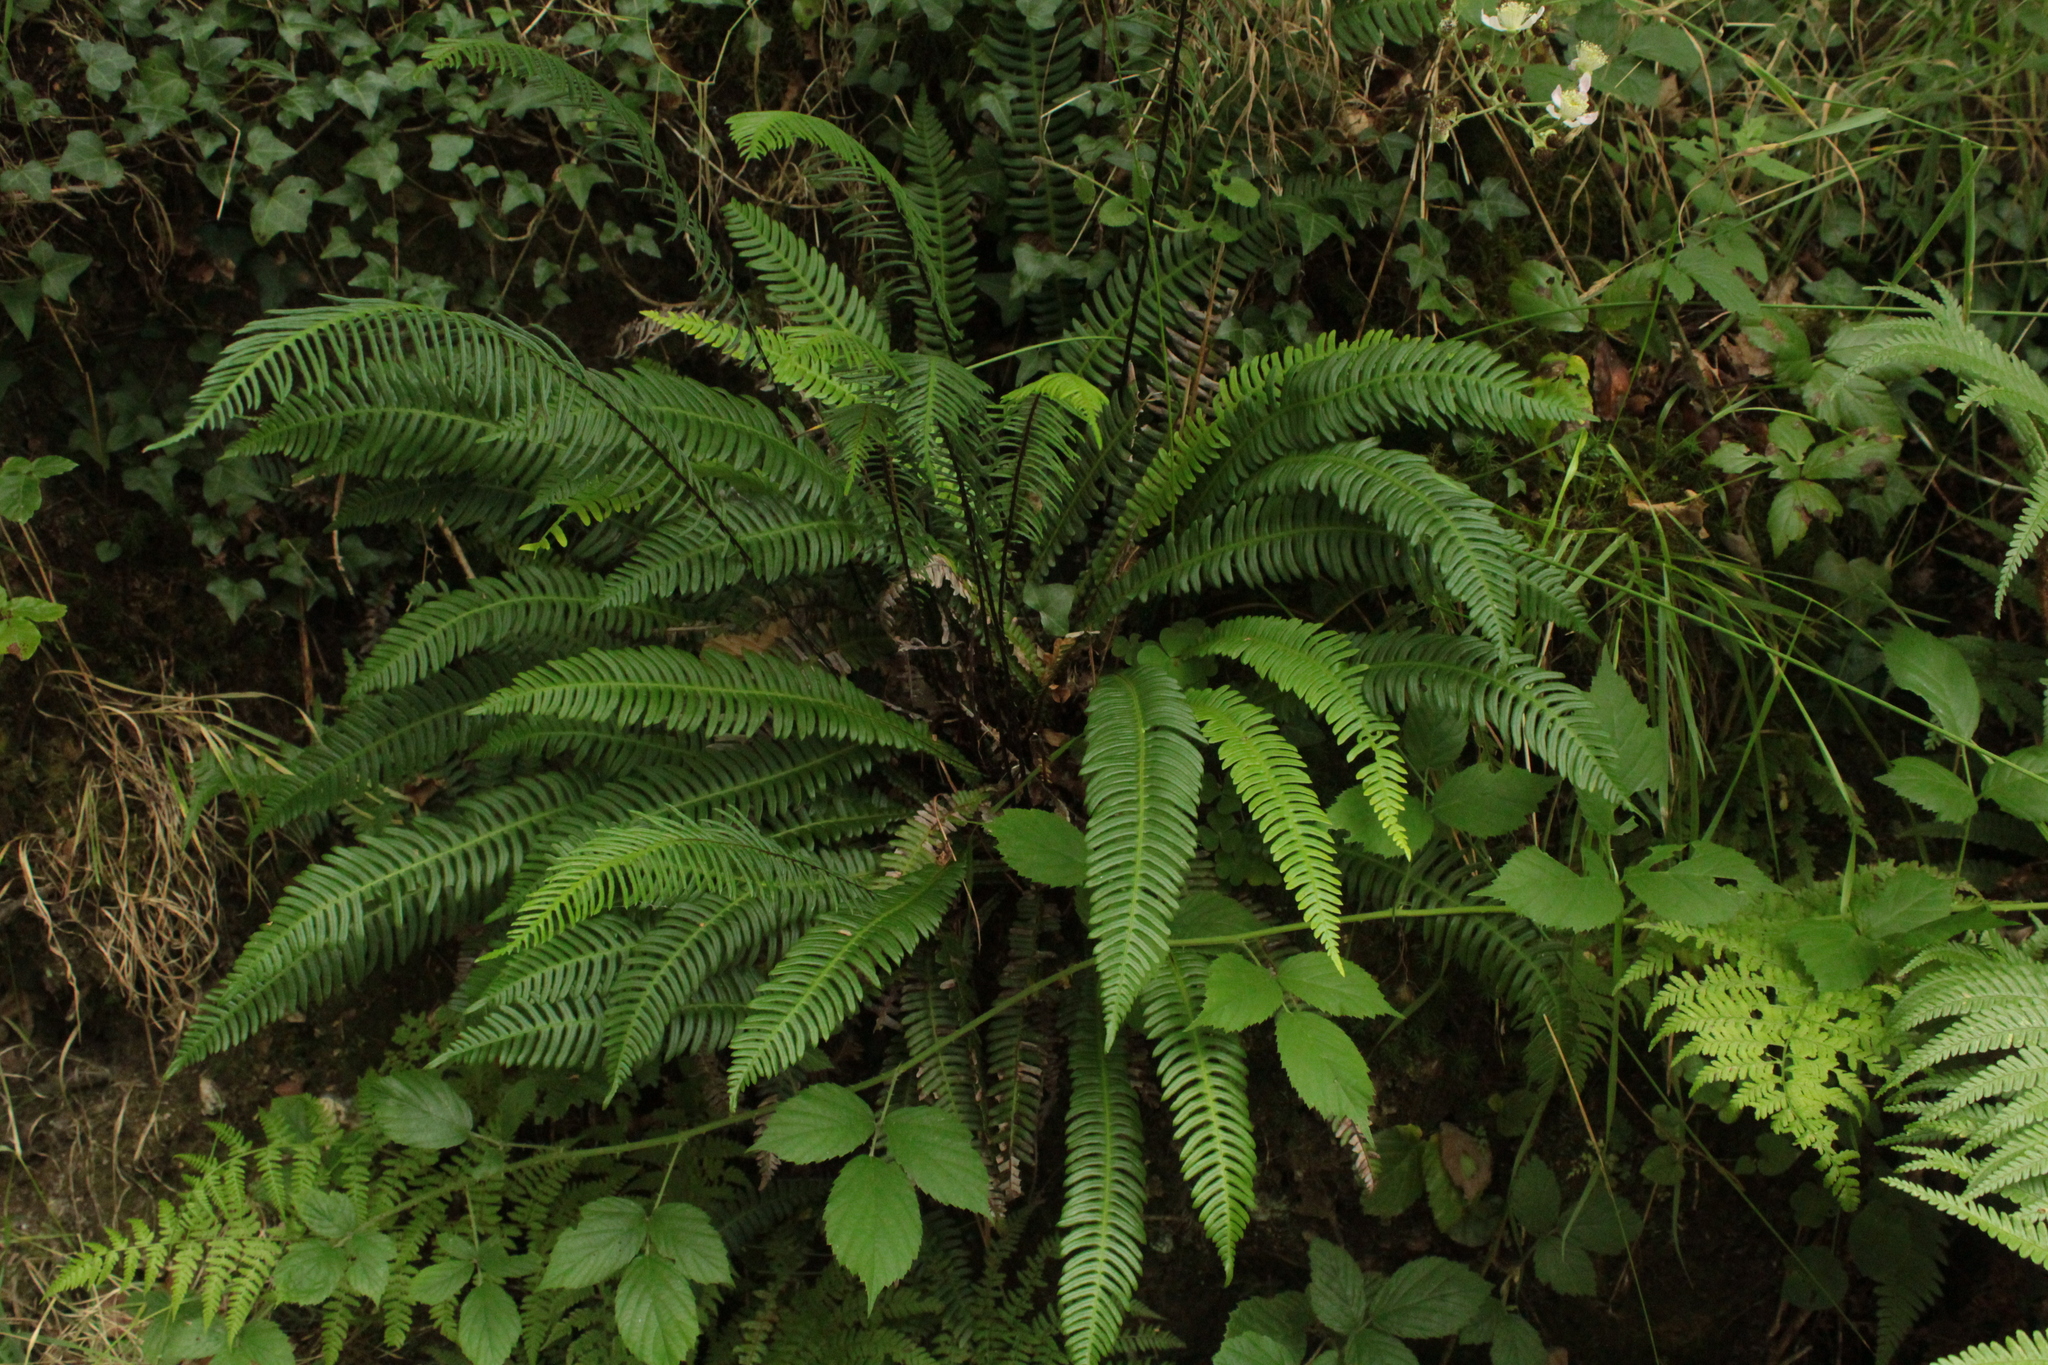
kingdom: Plantae
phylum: Tracheophyta
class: Polypodiopsida
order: Polypodiales
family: Blechnaceae
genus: Struthiopteris
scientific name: Struthiopteris spicant
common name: Deer fern
